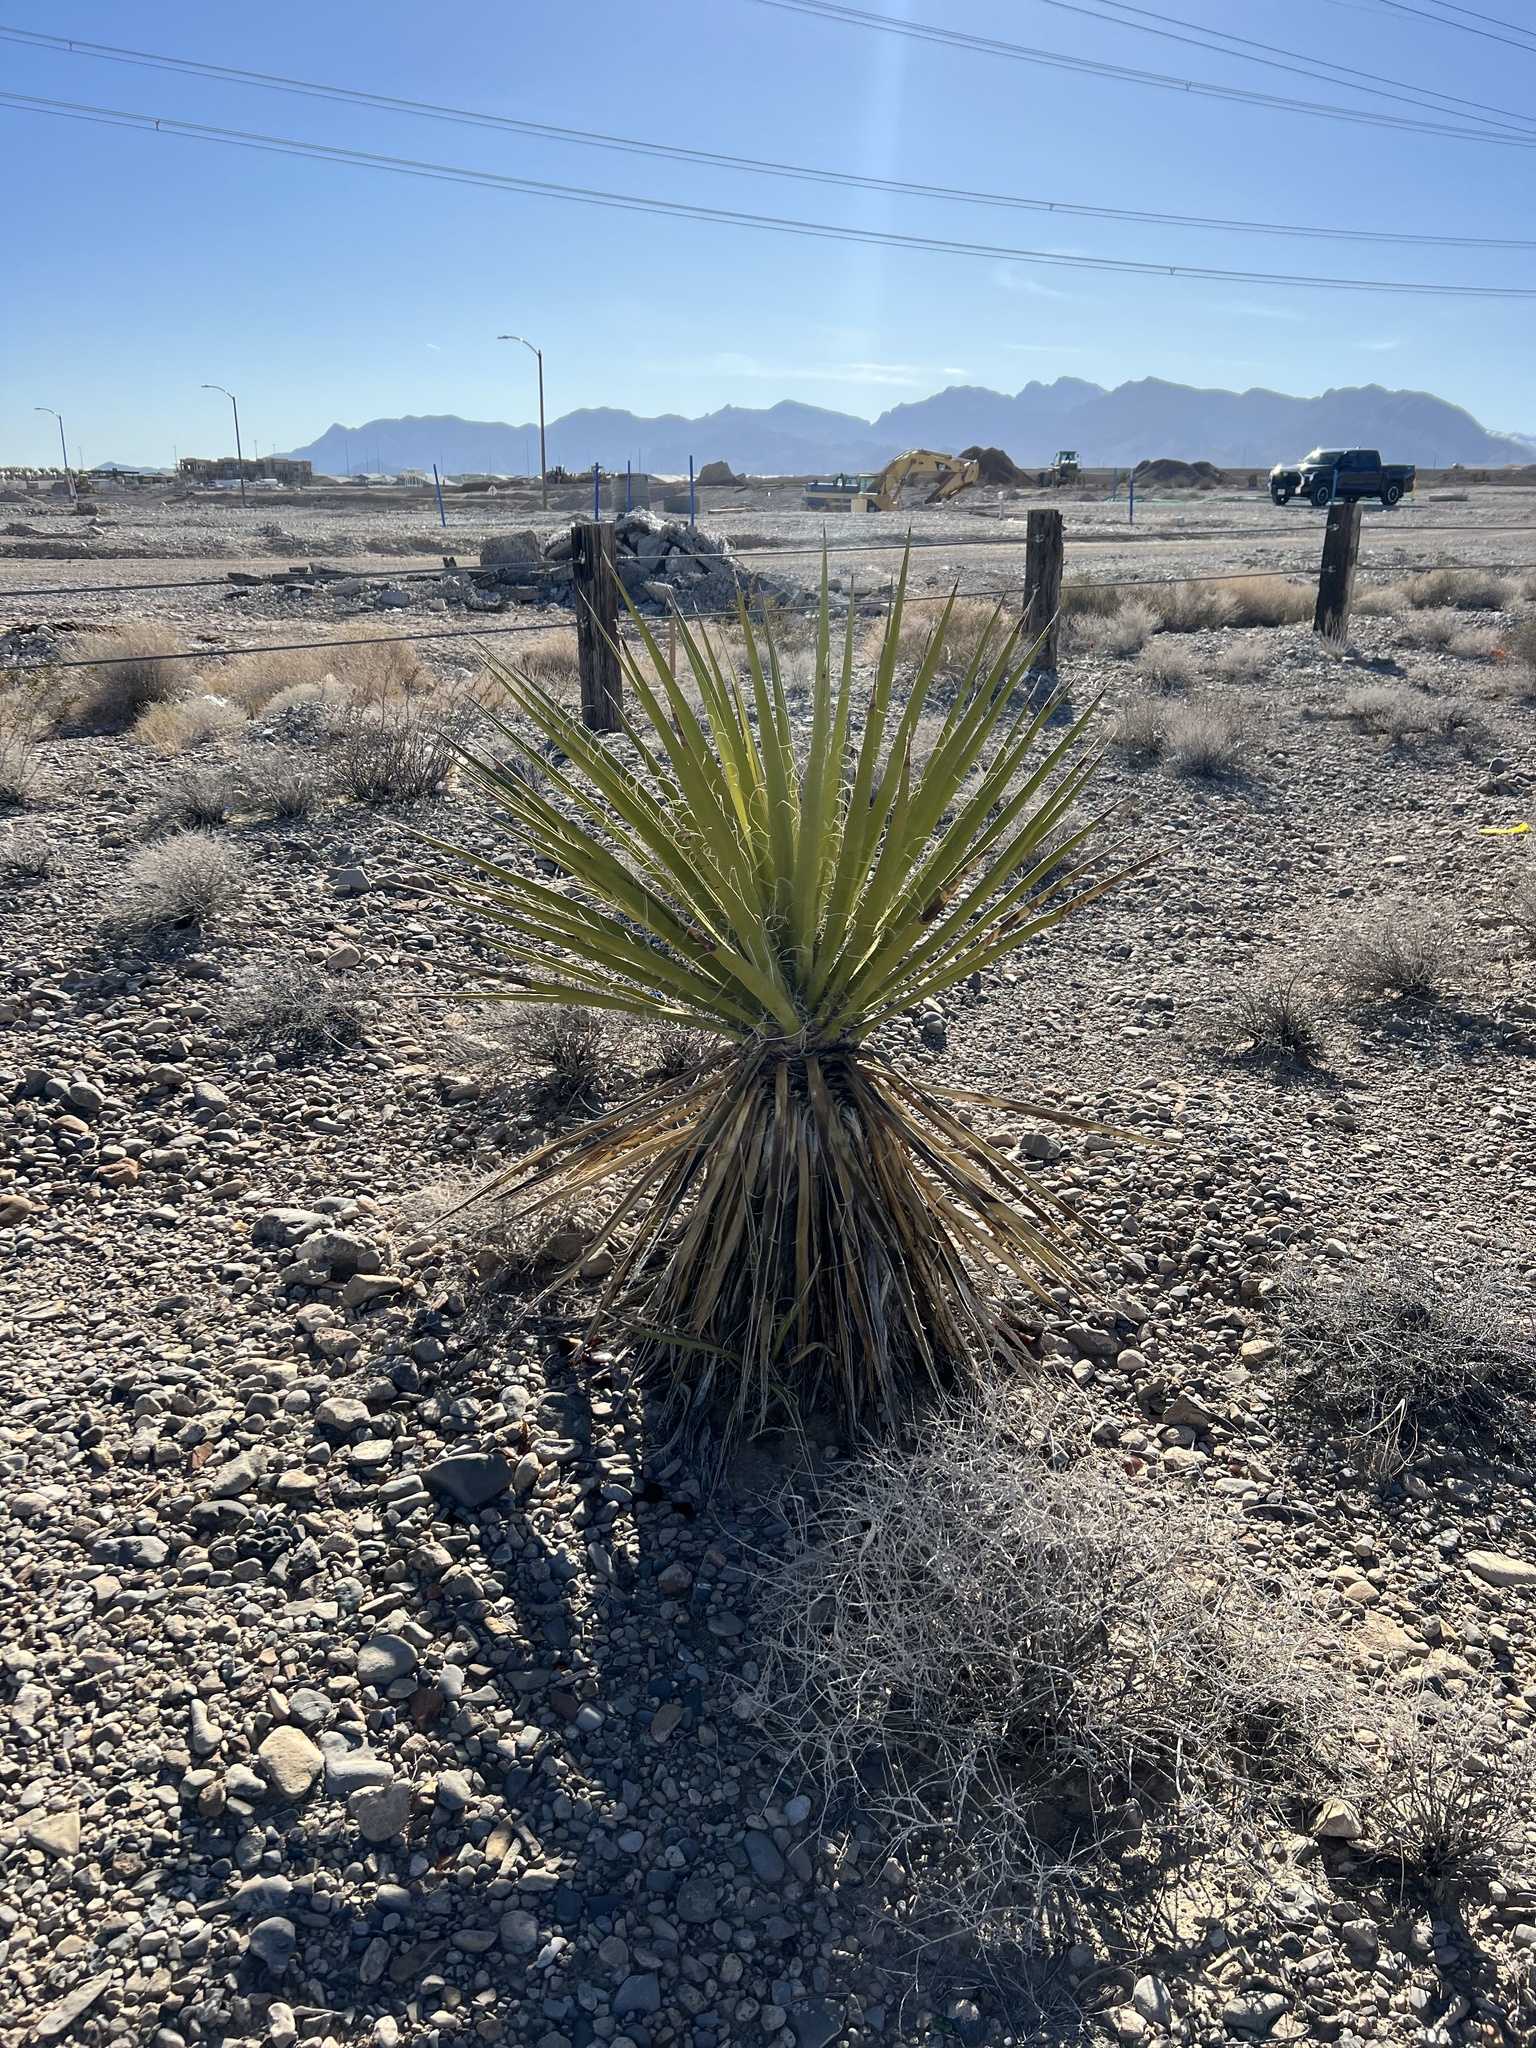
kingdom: Plantae
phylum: Tracheophyta
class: Liliopsida
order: Asparagales
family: Asparagaceae
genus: Yucca
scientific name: Yucca schidigera
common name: Mojave yucca
